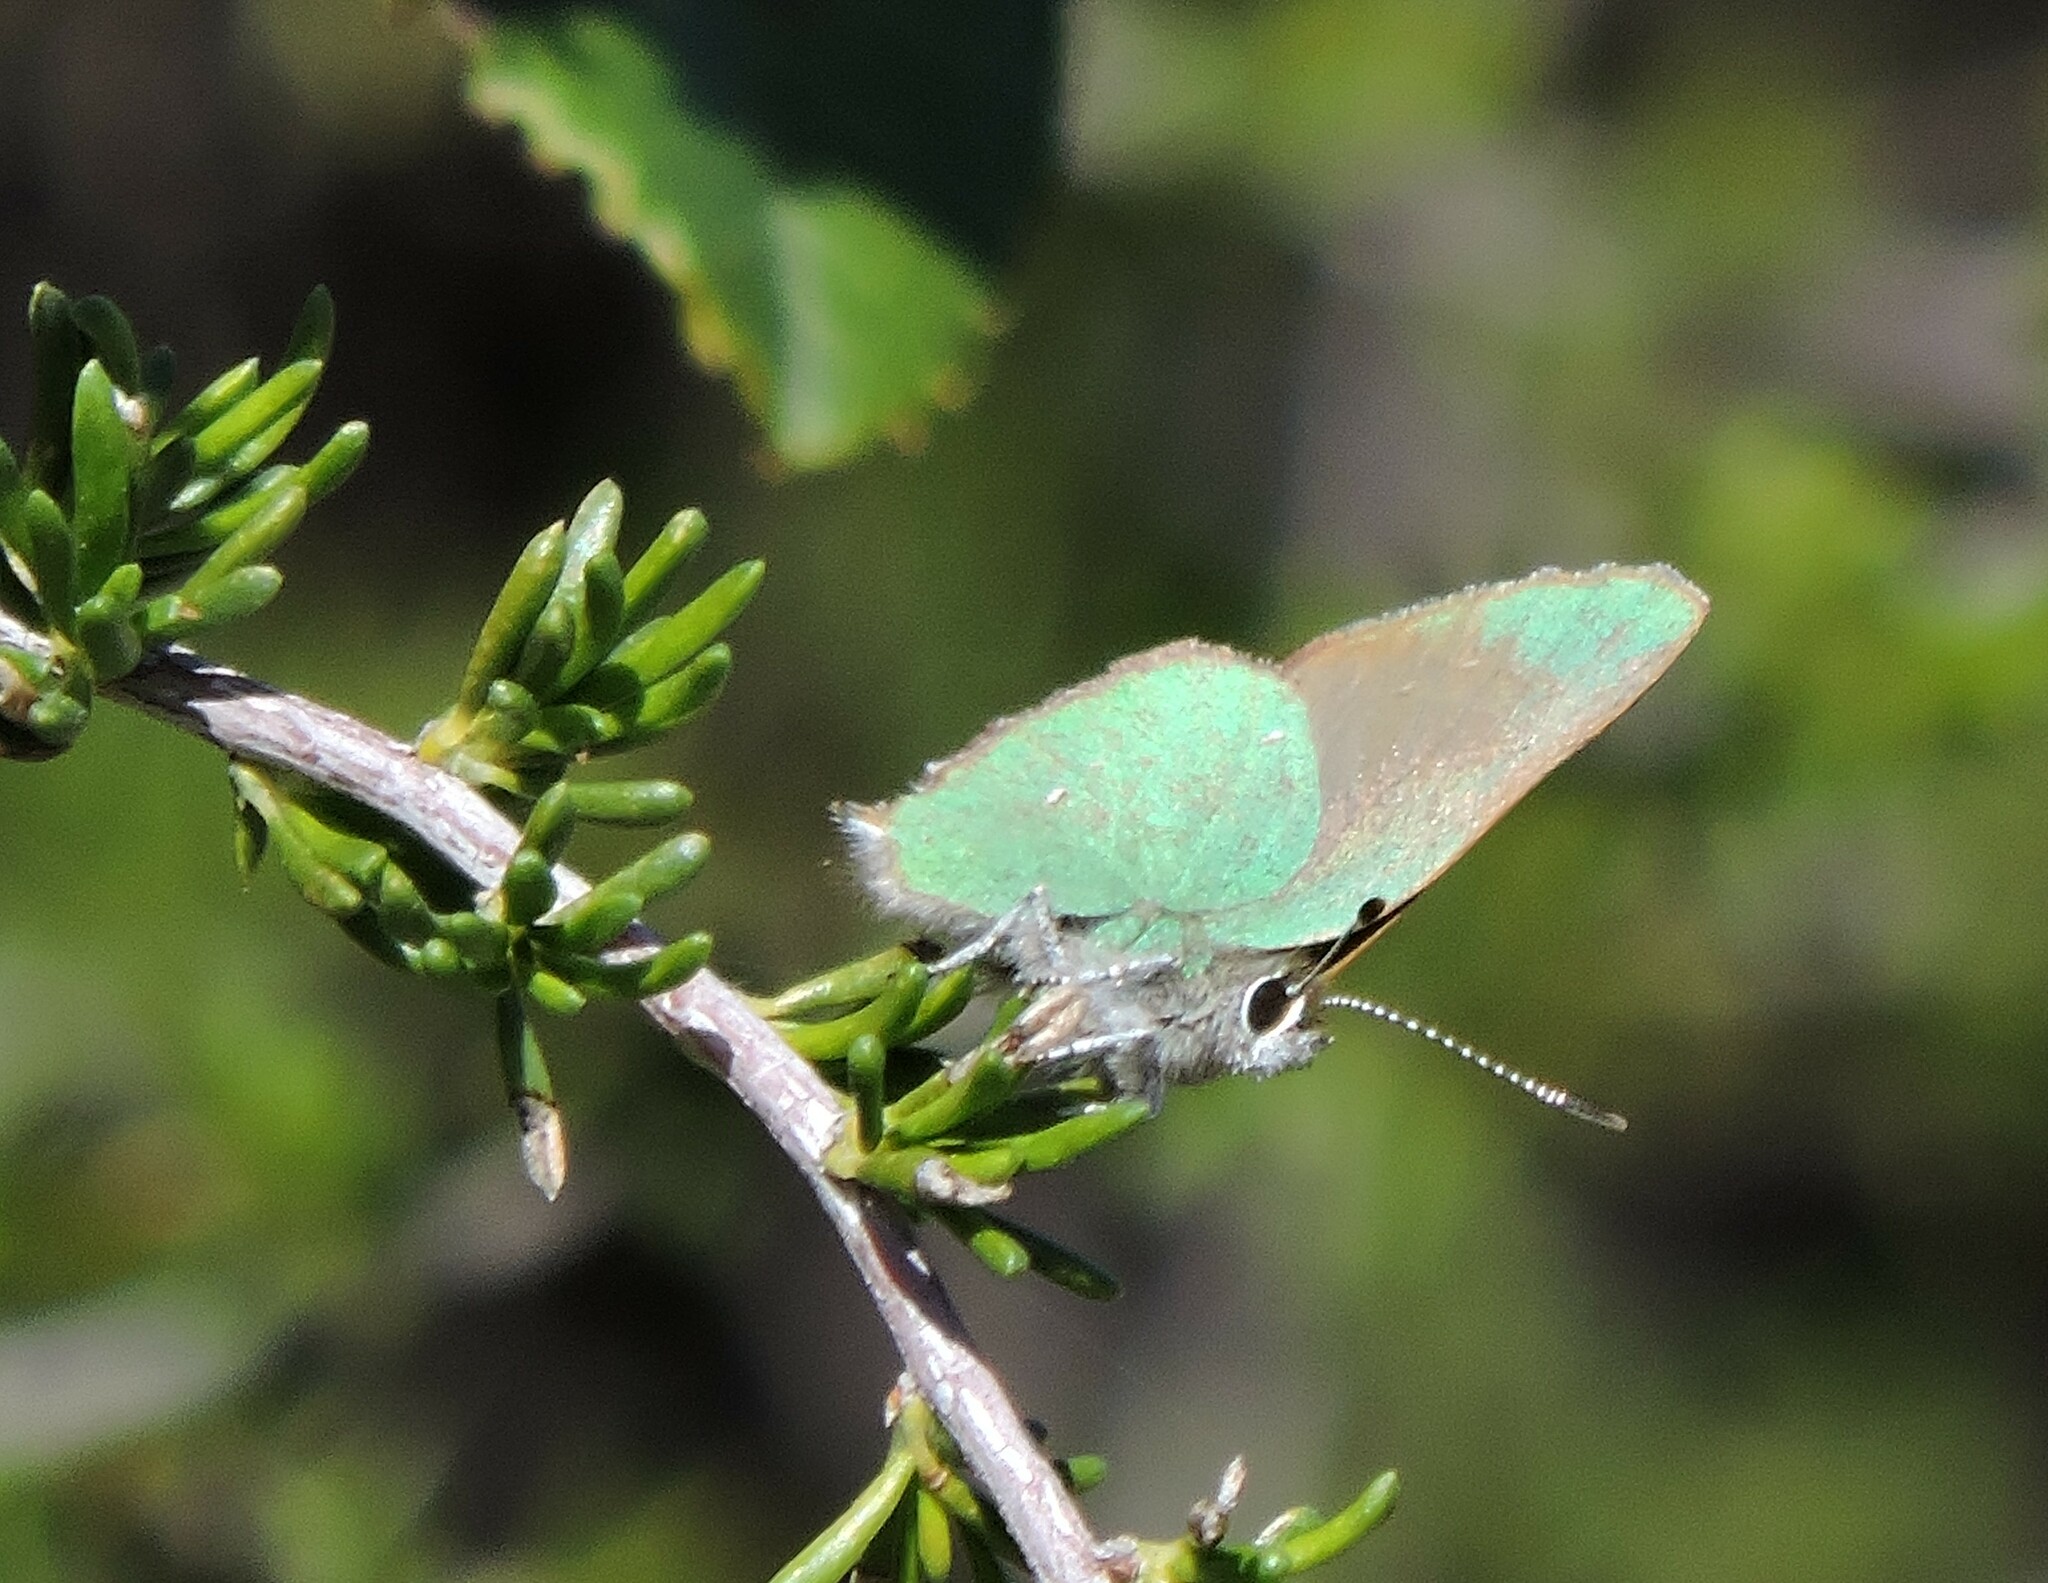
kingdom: Animalia
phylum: Arthropoda
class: Insecta
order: Lepidoptera
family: Lycaenidae
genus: Callophrys
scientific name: Callophrys dumetorum
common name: Bramble hairstreak
